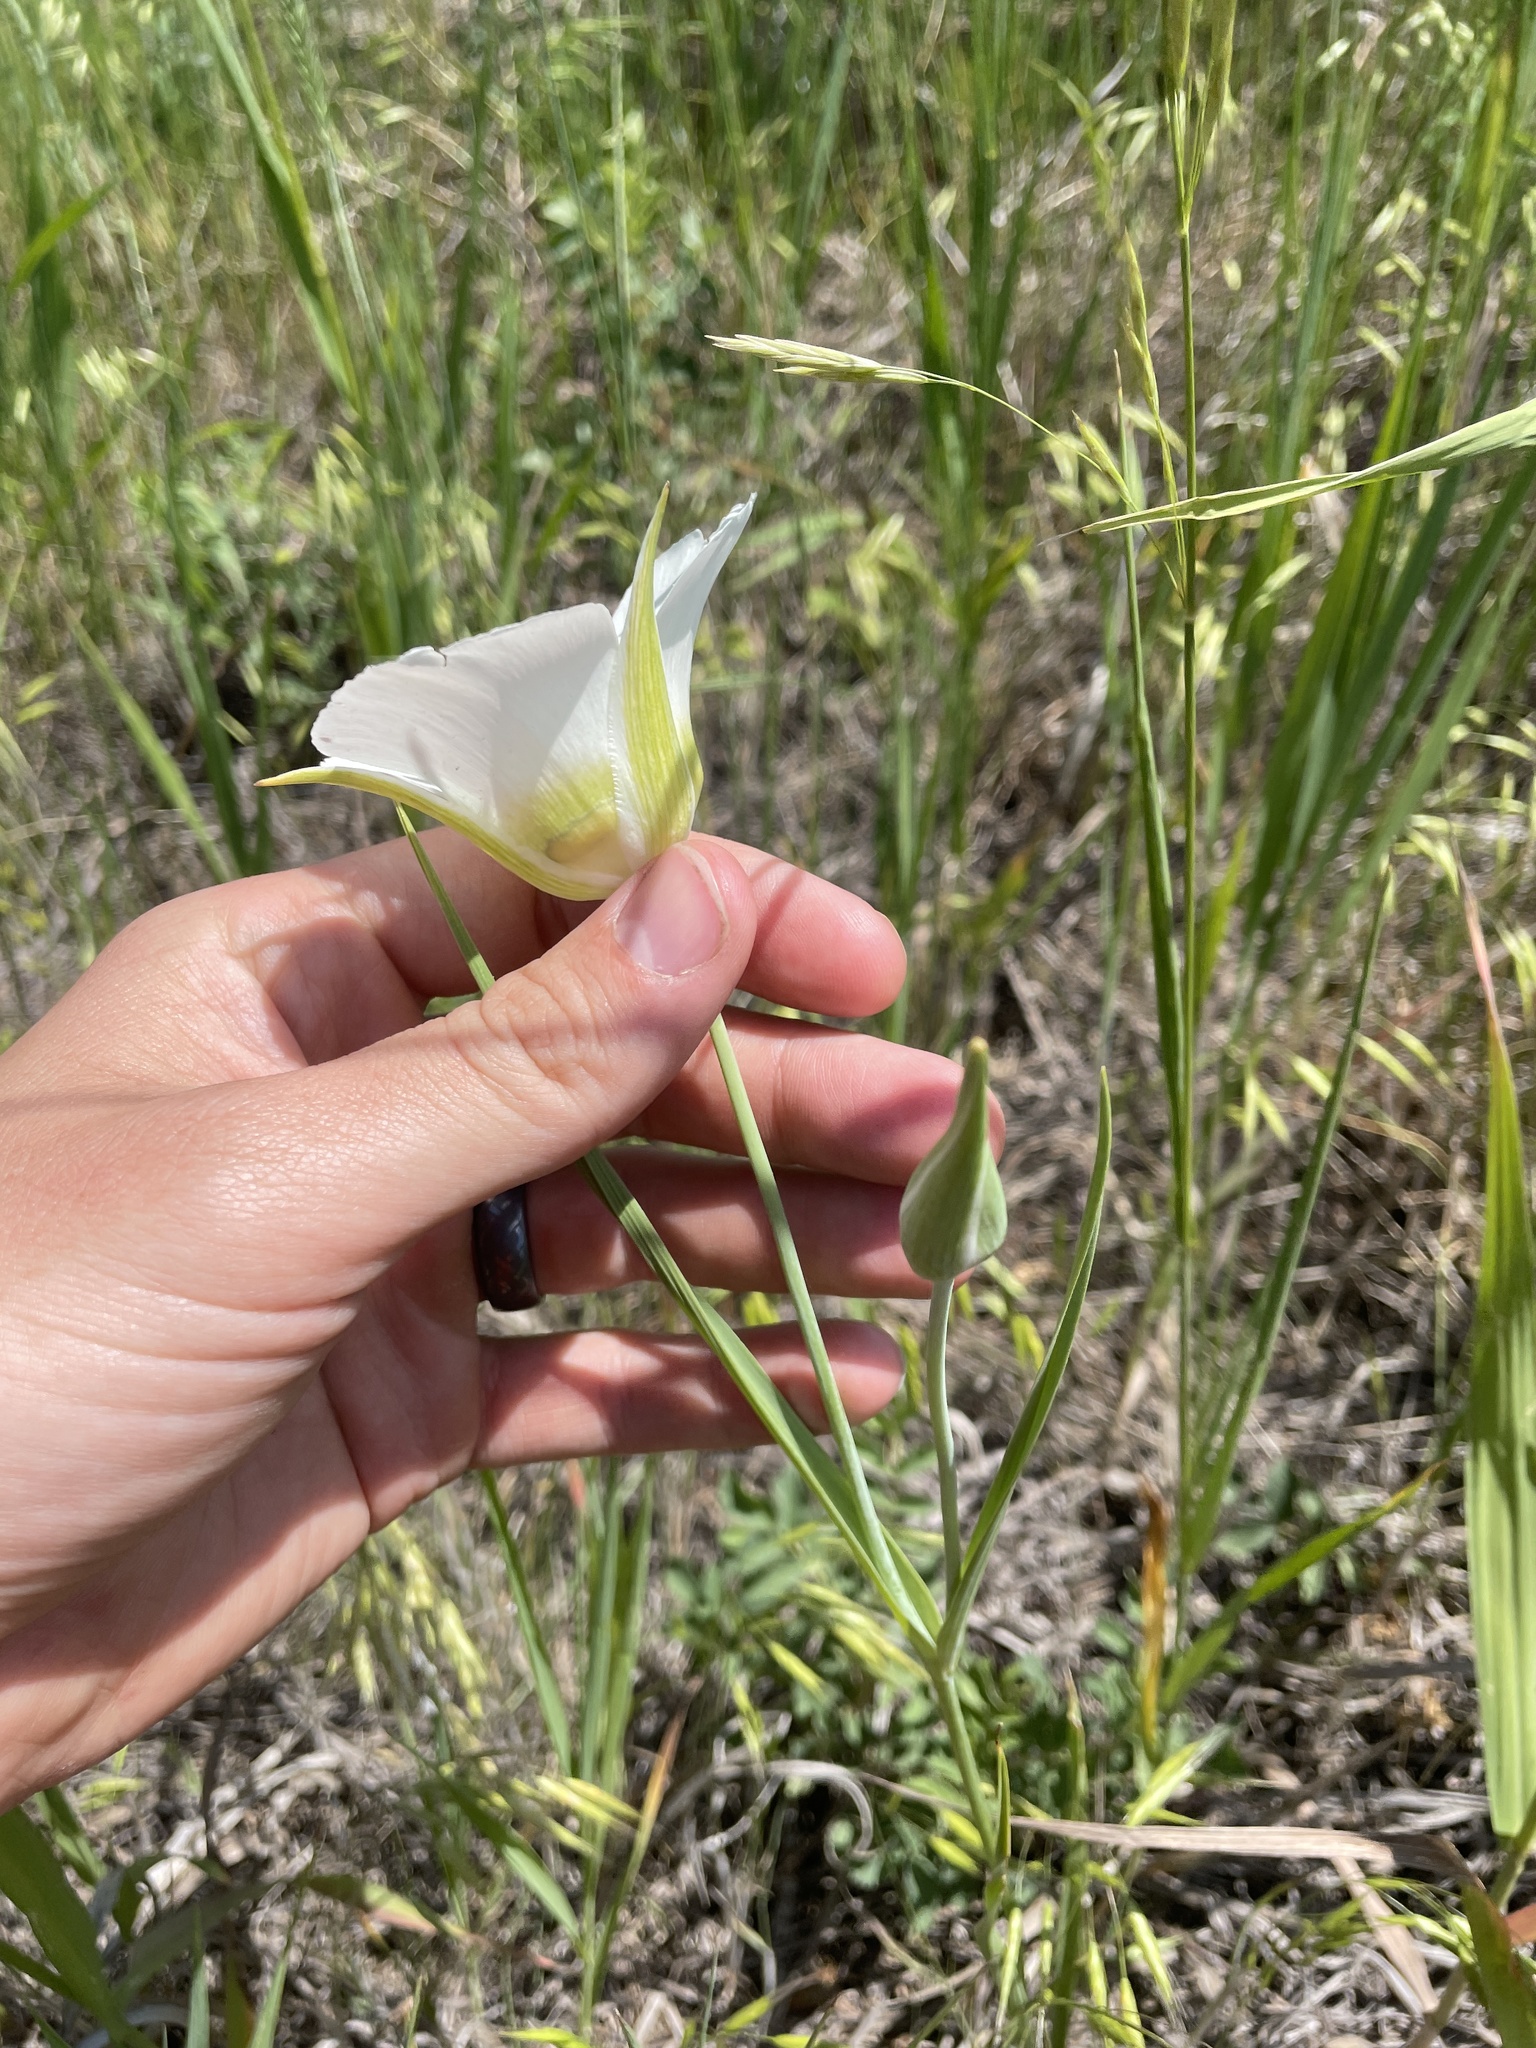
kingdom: Plantae
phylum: Tracheophyta
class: Liliopsida
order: Liliales
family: Liliaceae
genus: Calochortus
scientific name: Calochortus gunnisonii
